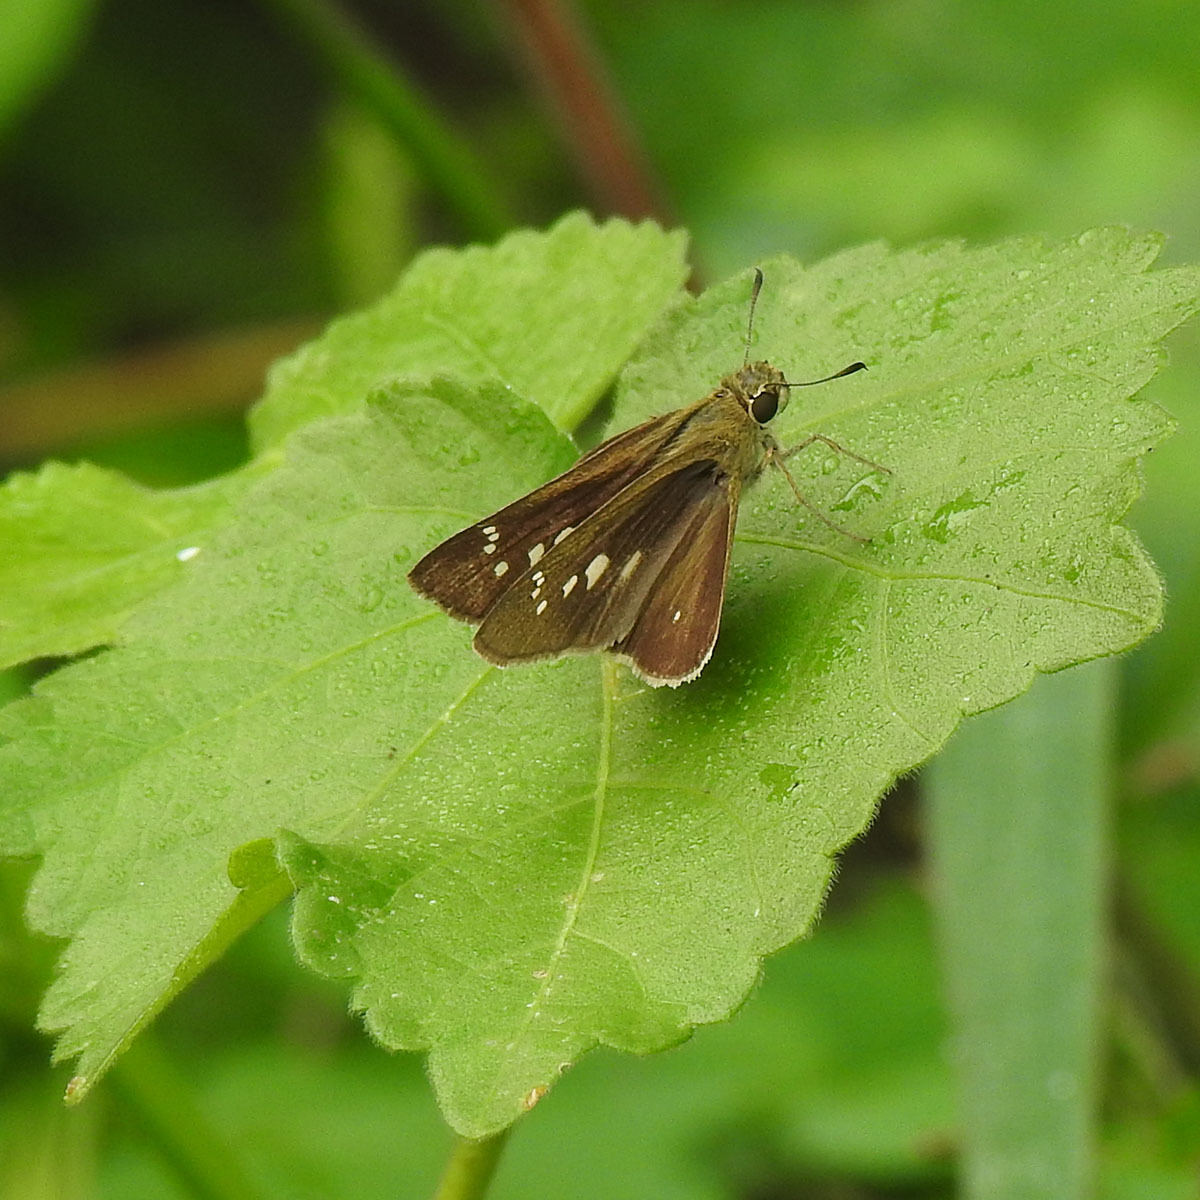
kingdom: Animalia
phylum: Arthropoda
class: Insecta
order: Lepidoptera
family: Hesperiidae
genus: Borbo
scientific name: Borbo cinnara
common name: Formosan swift
